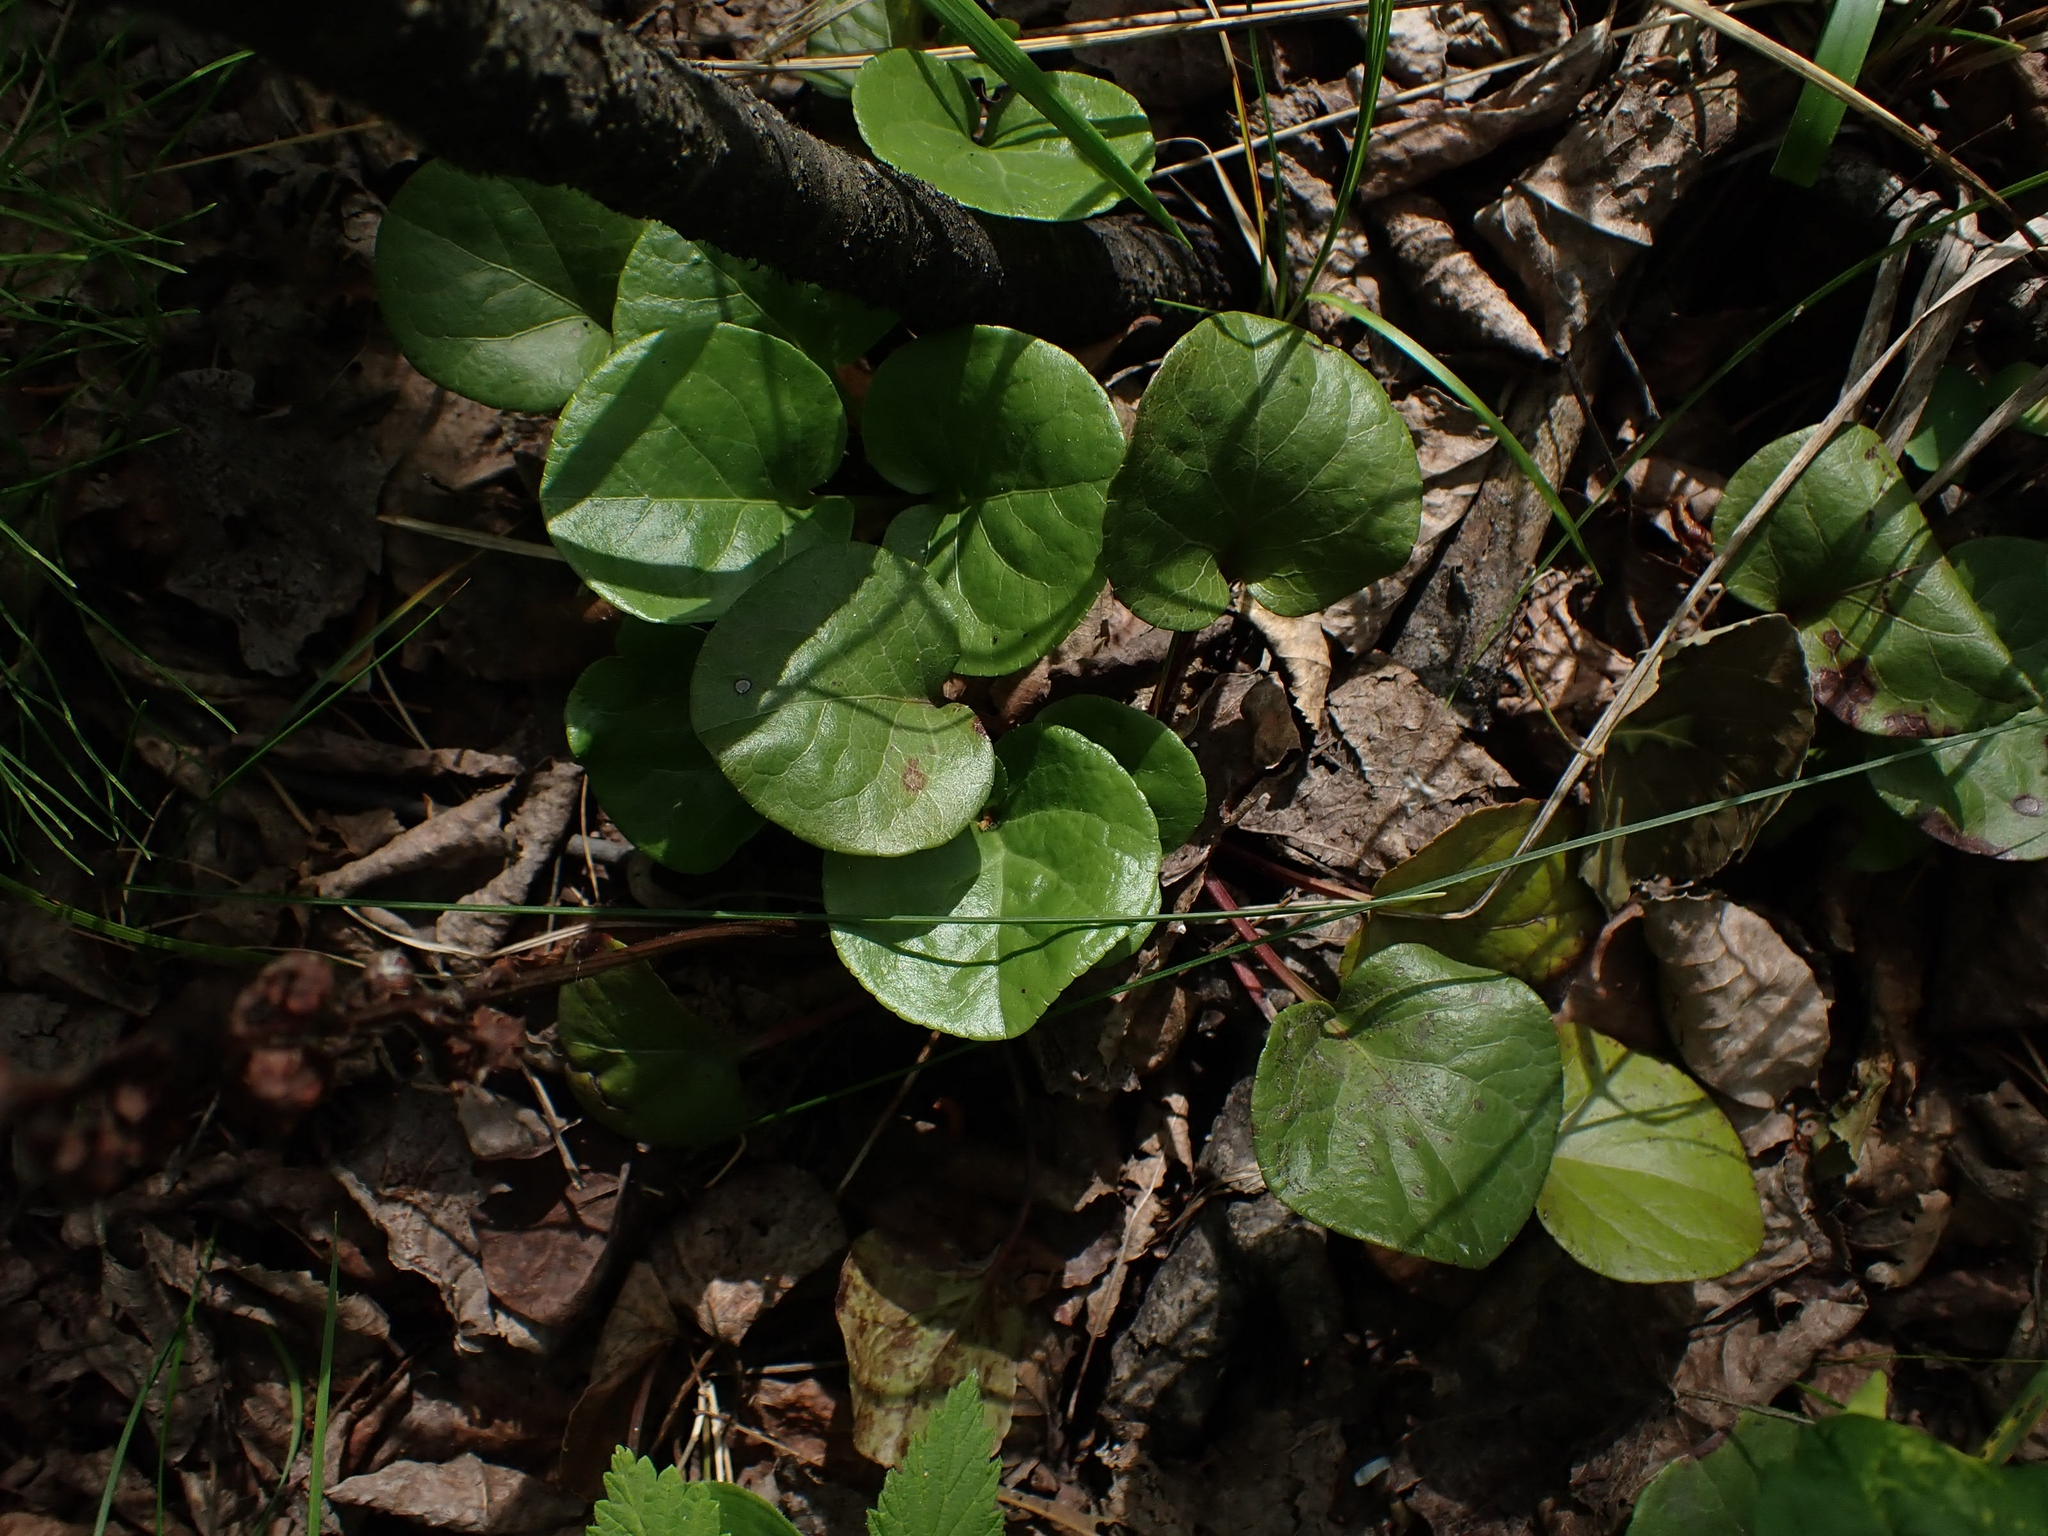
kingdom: Plantae
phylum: Tracheophyta
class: Magnoliopsida
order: Ericales
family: Ericaceae
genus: Pyrola
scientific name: Pyrola asarifolia
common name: Bog wintergreen
